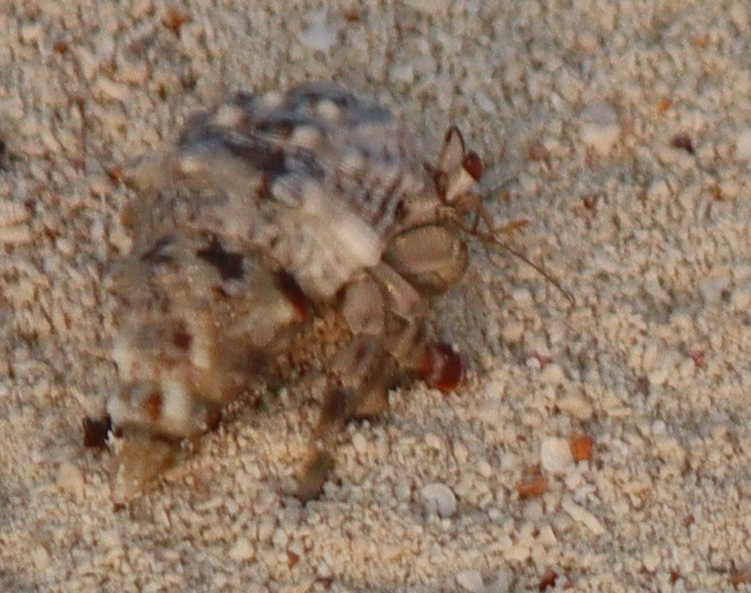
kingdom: Animalia
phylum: Arthropoda
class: Malacostraca
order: Decapoda
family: Coenobitidae
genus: Coenobita
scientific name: Coenobita scaevola
